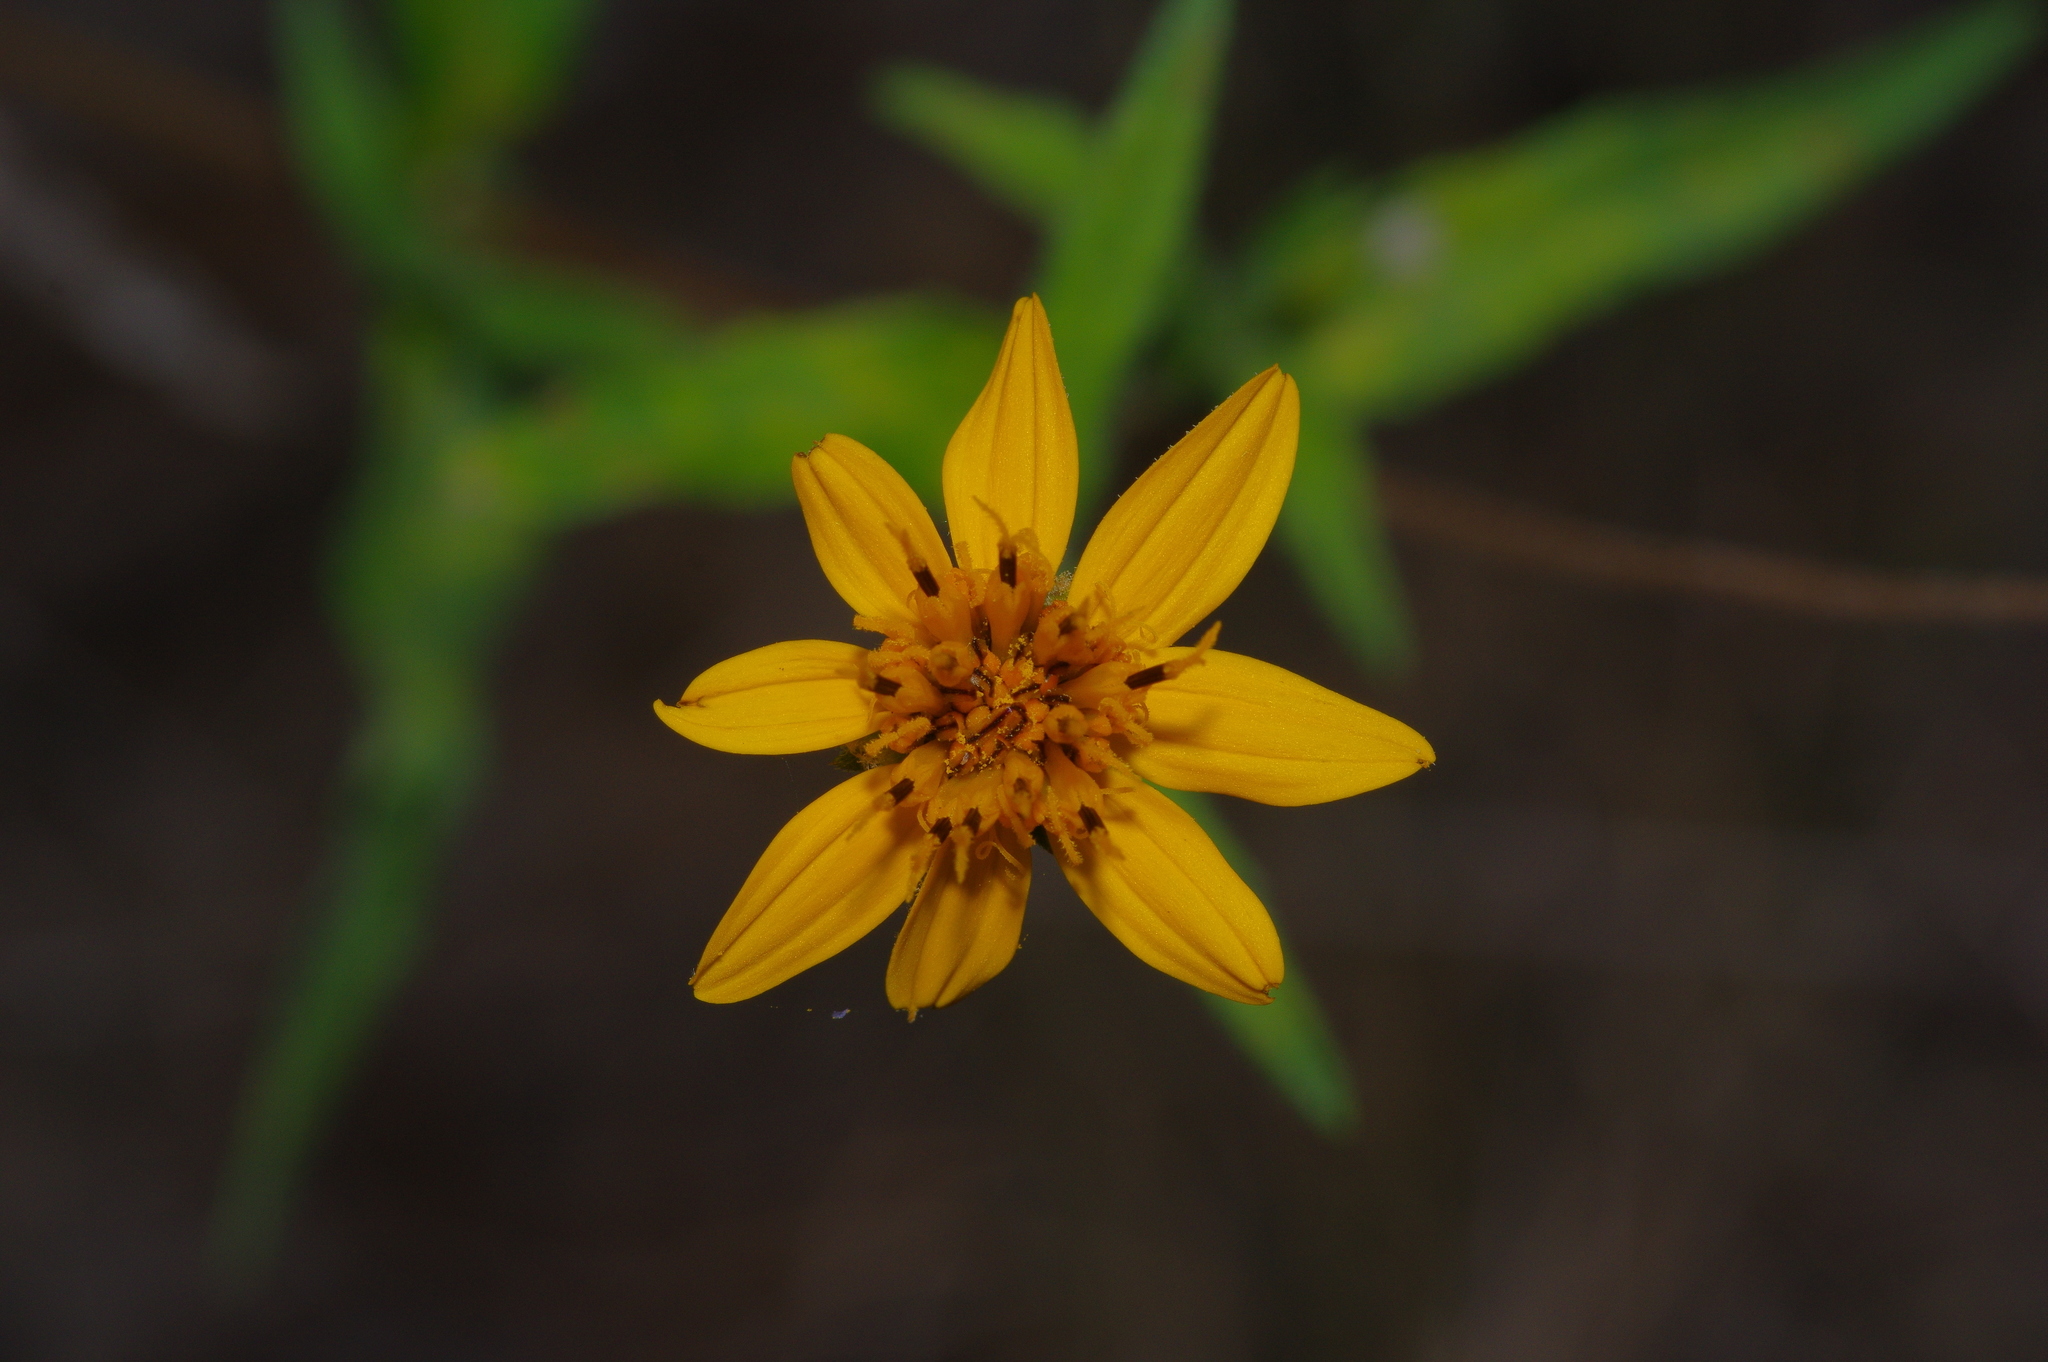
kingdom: Plantae
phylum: Tracheophyta
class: Magnoliopsida
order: Asterales
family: Asteraceae
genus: Wedelia
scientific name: Wedelia acapulcensis
